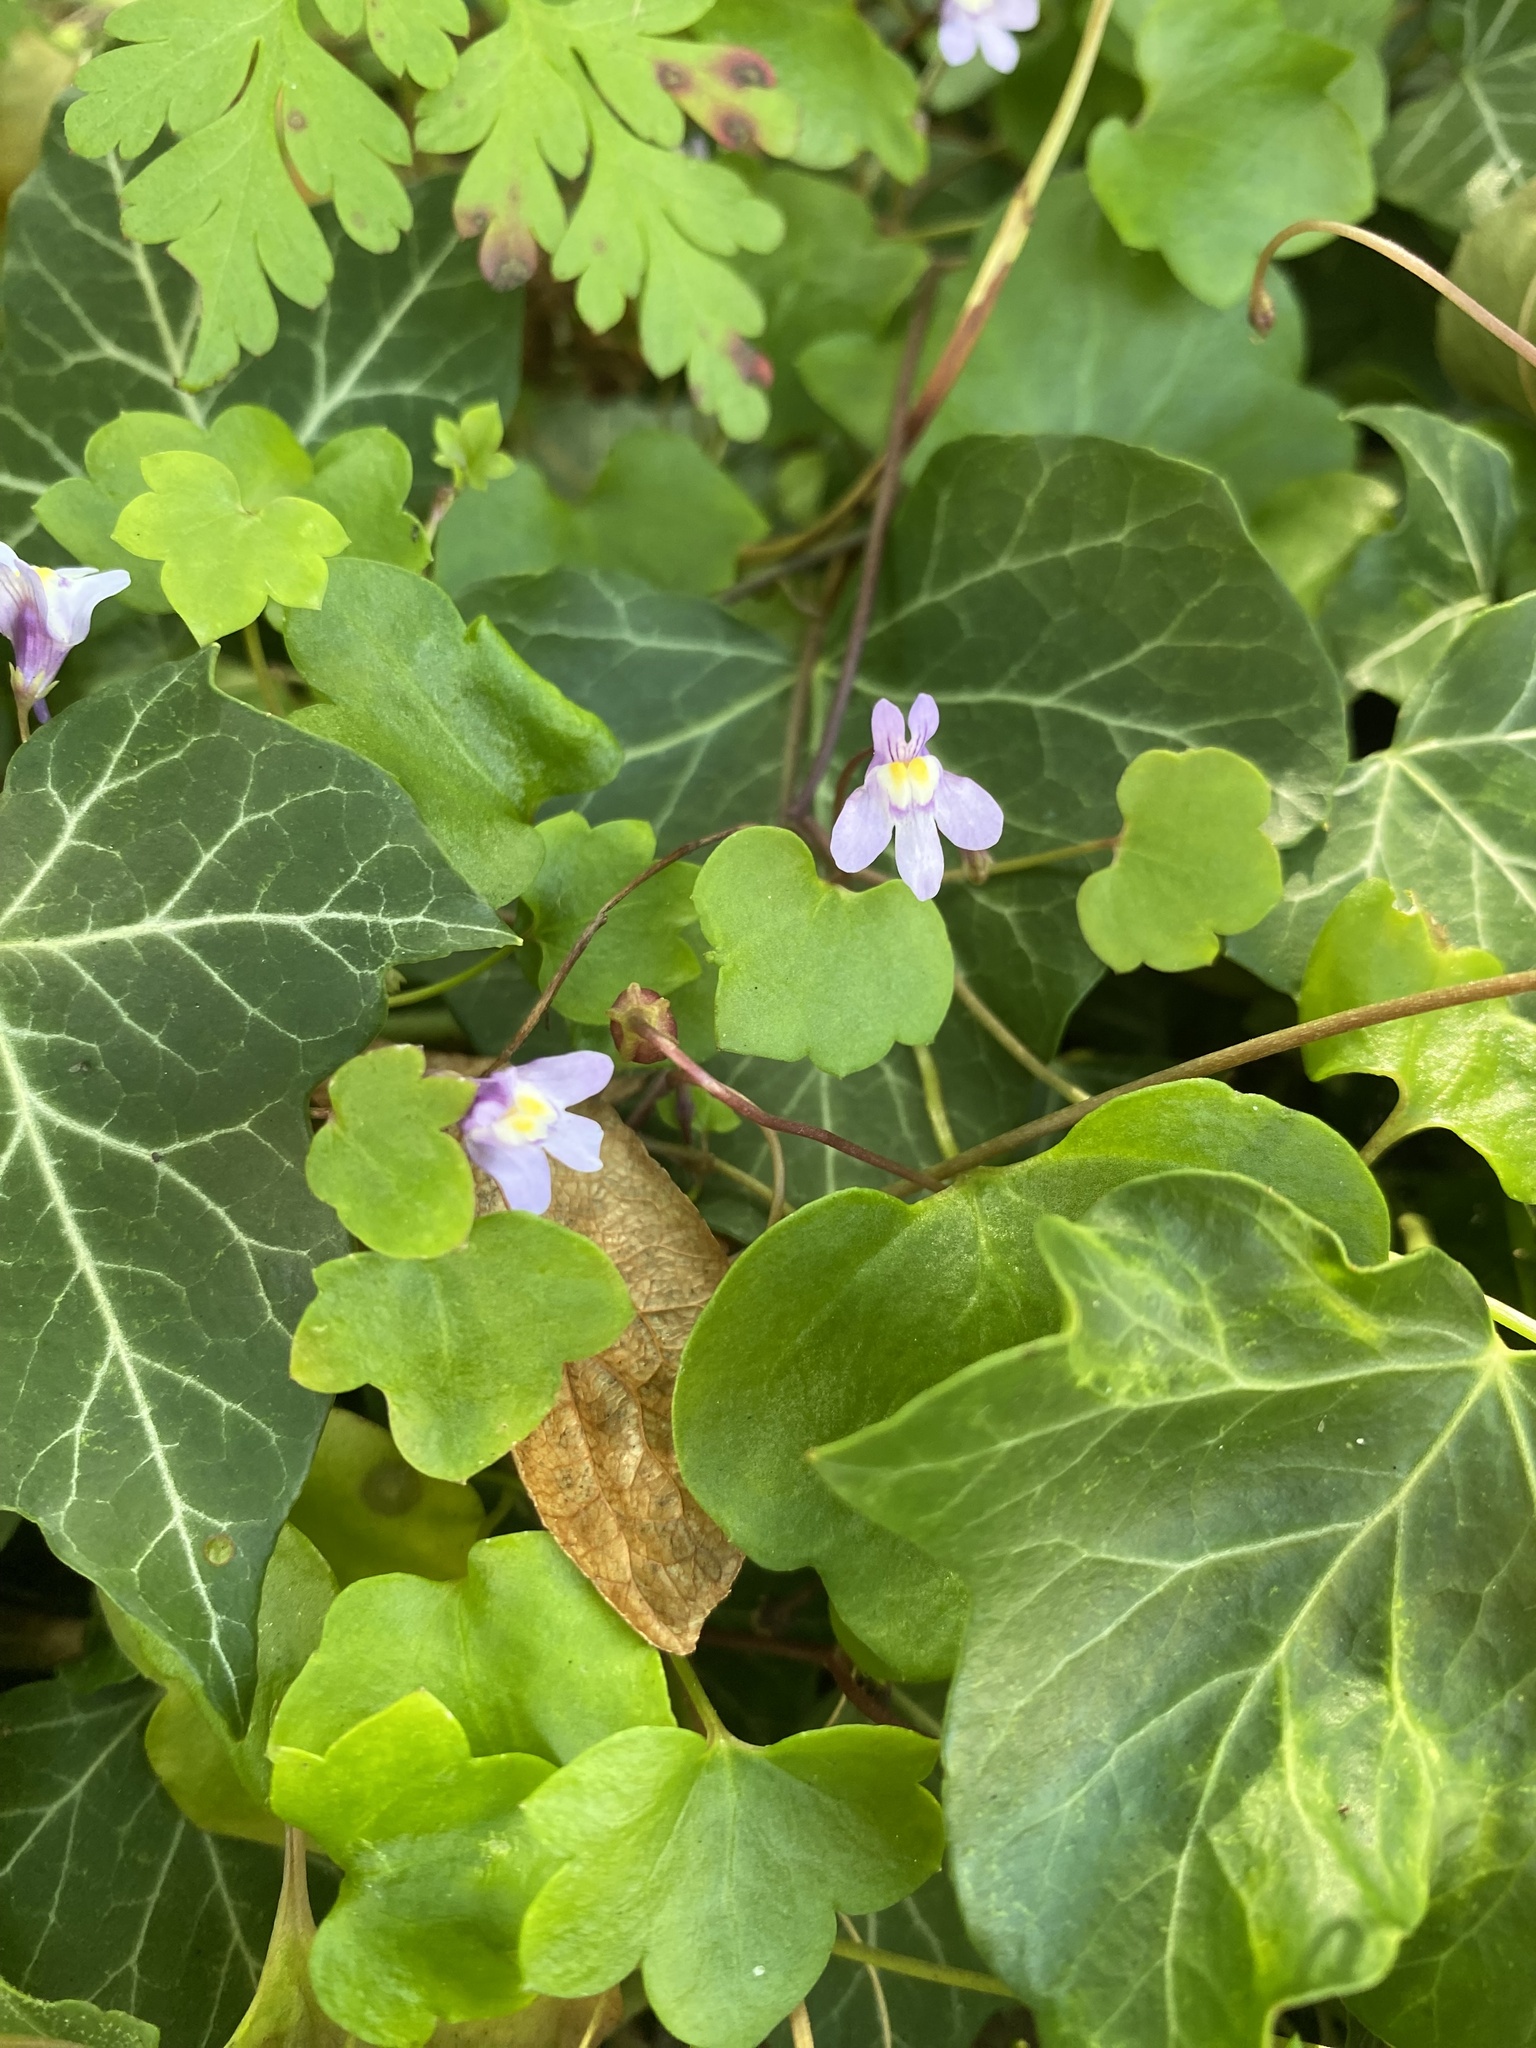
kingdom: Plantae
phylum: Tracheophyta
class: Magnoliopsida
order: Lamiales
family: Plantaginaceae
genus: Cymbalaria
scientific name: Cymbalaria muralis
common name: Ivy-leaved toadflax
